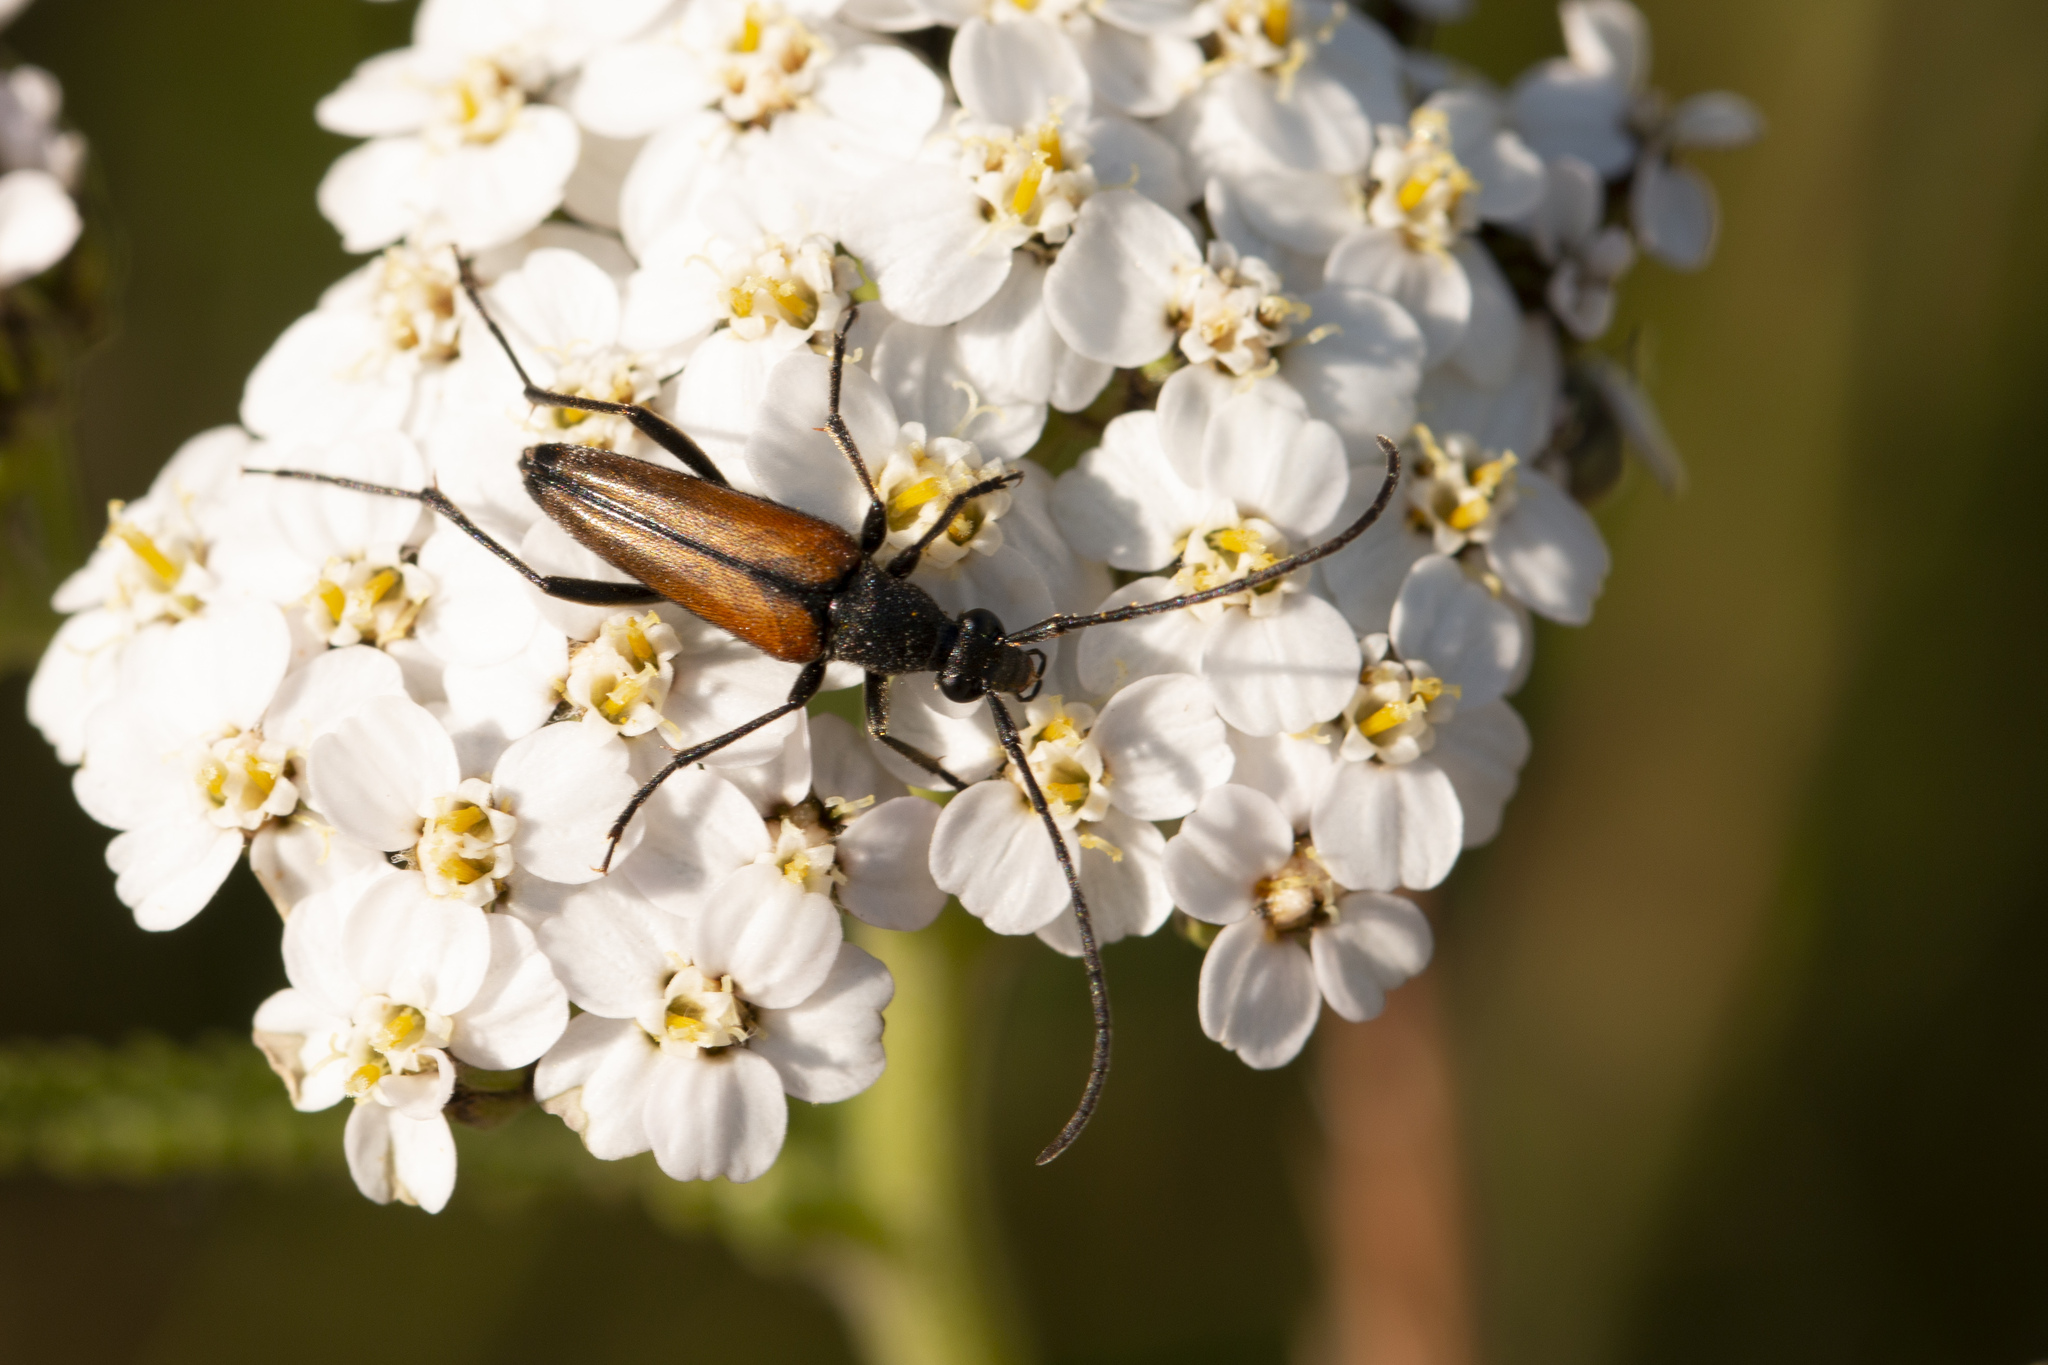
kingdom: Animalia
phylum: Arthropoda
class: Insecta
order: Coleoptera
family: Cerambycidae
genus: Stenurella
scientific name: Stenurella melanura
